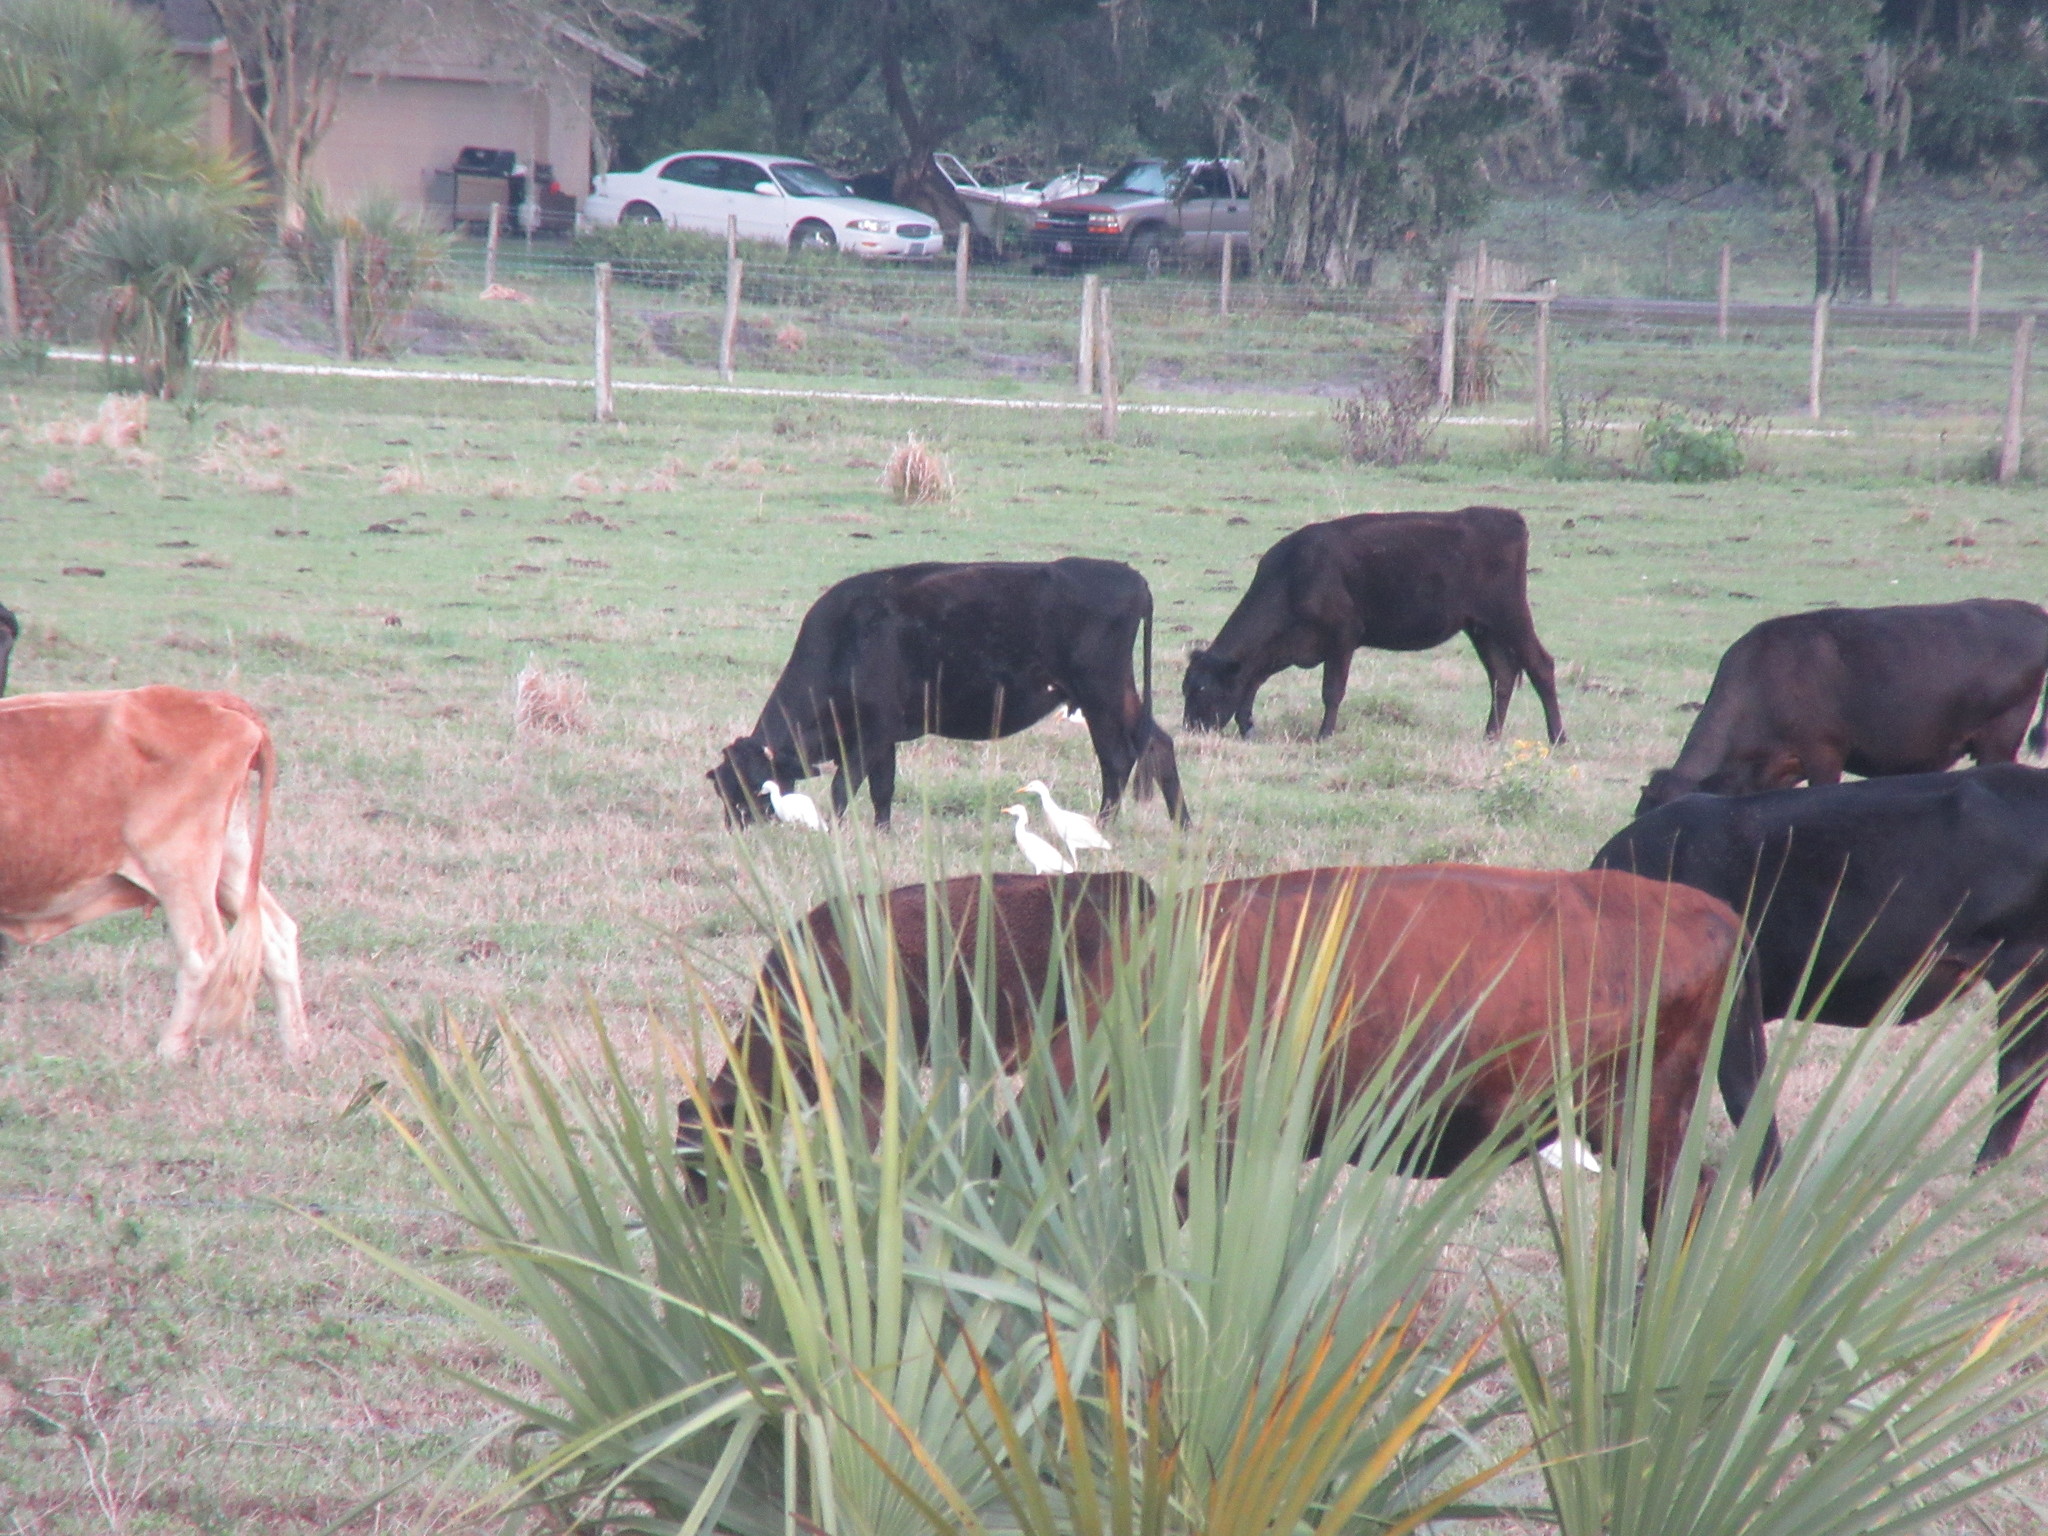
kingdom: Animalia
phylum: Chordata
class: Aves
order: Pelecaniformes
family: Ardeidae
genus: Bubulcus
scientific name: Bubulcus ibis
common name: Cattle egret
